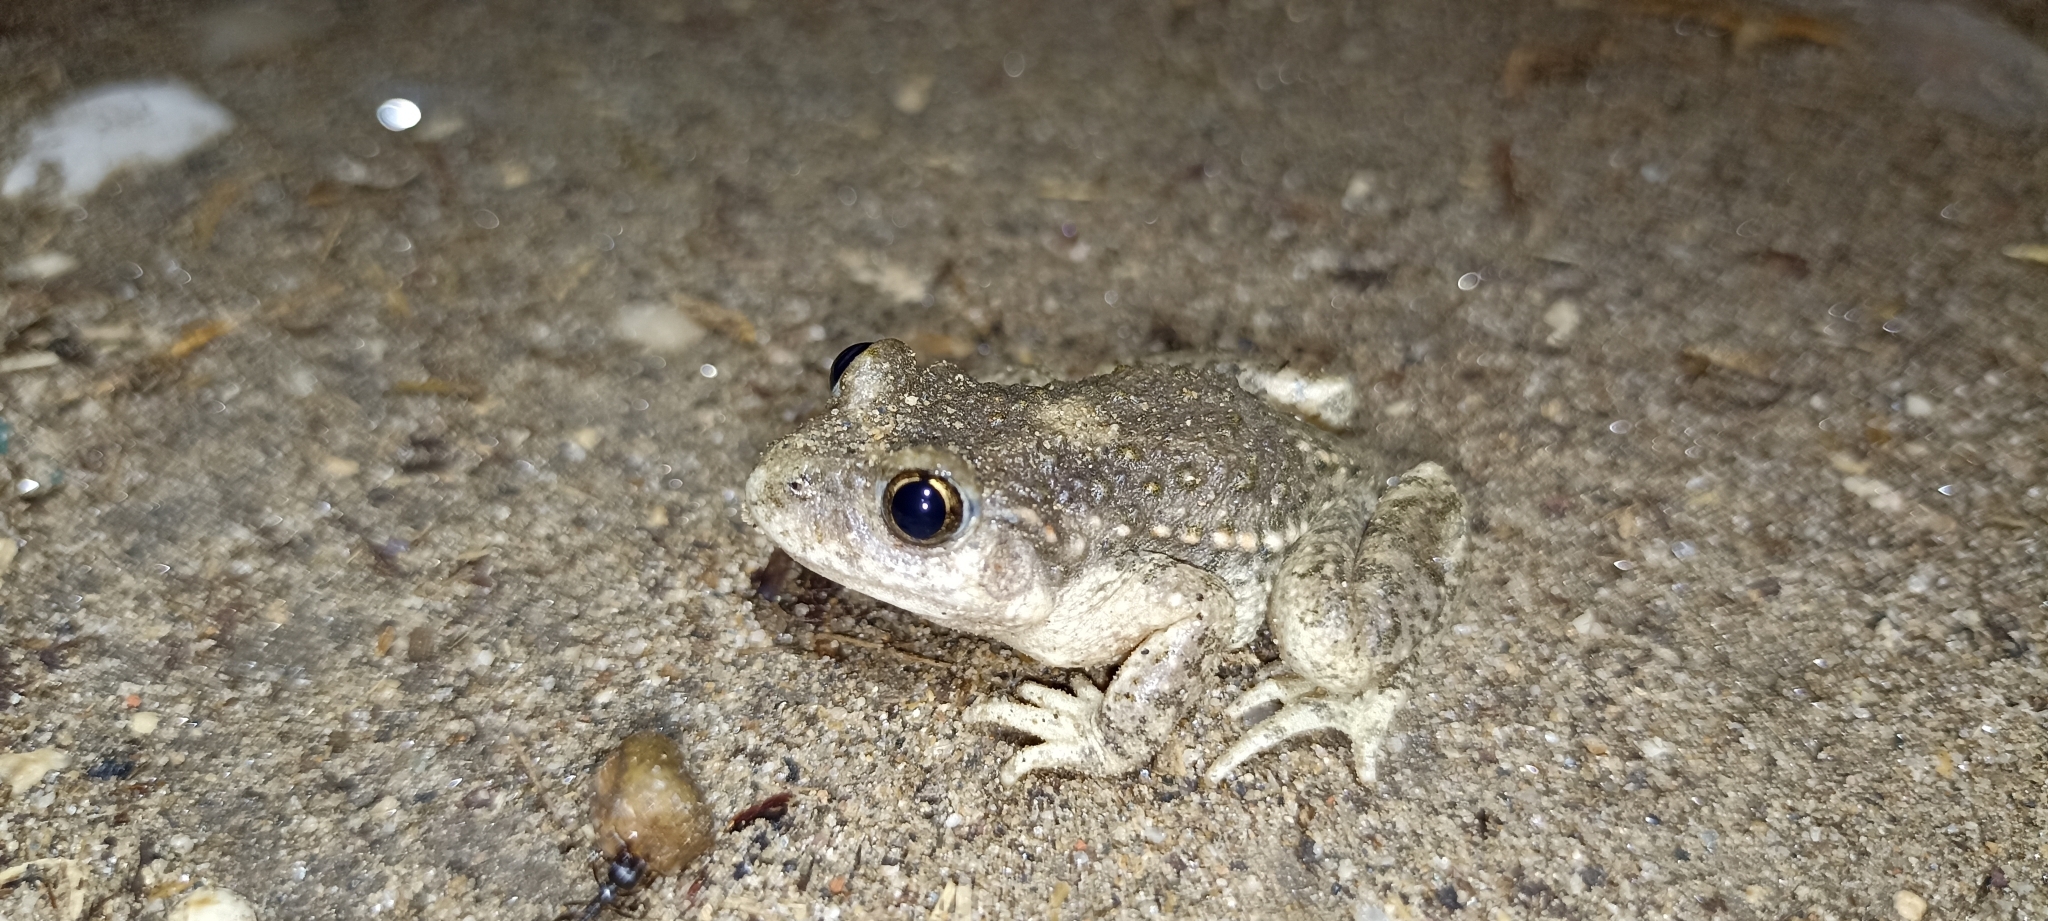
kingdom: Animalia
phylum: Chordata
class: Amphibia
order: Anura
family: Alytidae
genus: Alytes
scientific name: Alytes obstetricans
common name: Midwife toad
